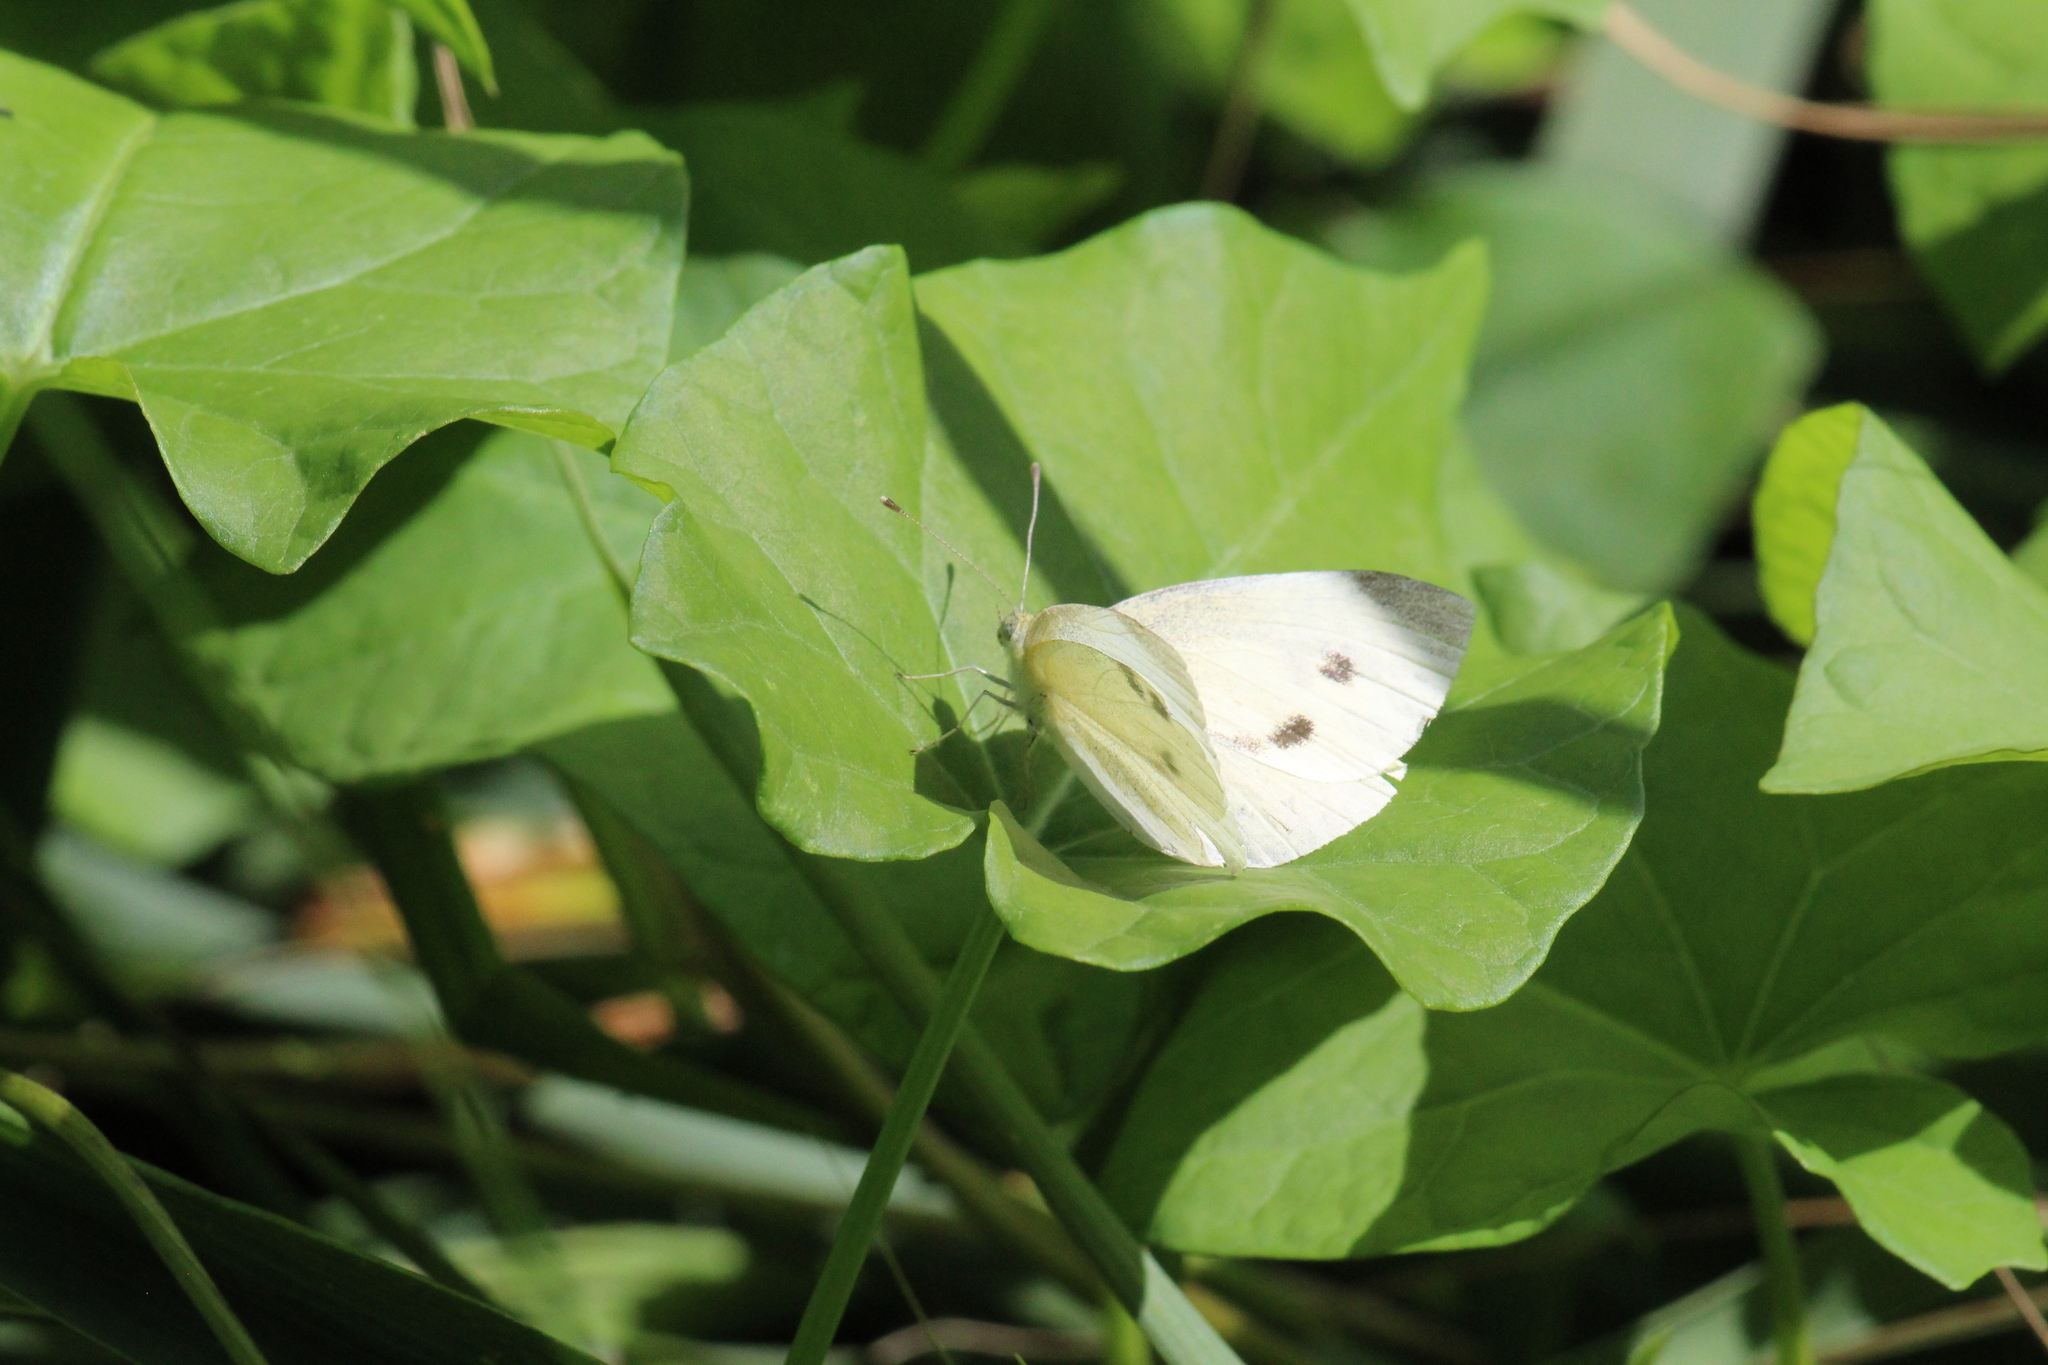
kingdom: Animalia
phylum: Arthropoda
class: Insecta
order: Lepidoptera
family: Pieridae
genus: Pieris
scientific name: Pieris rapae
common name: Small white
